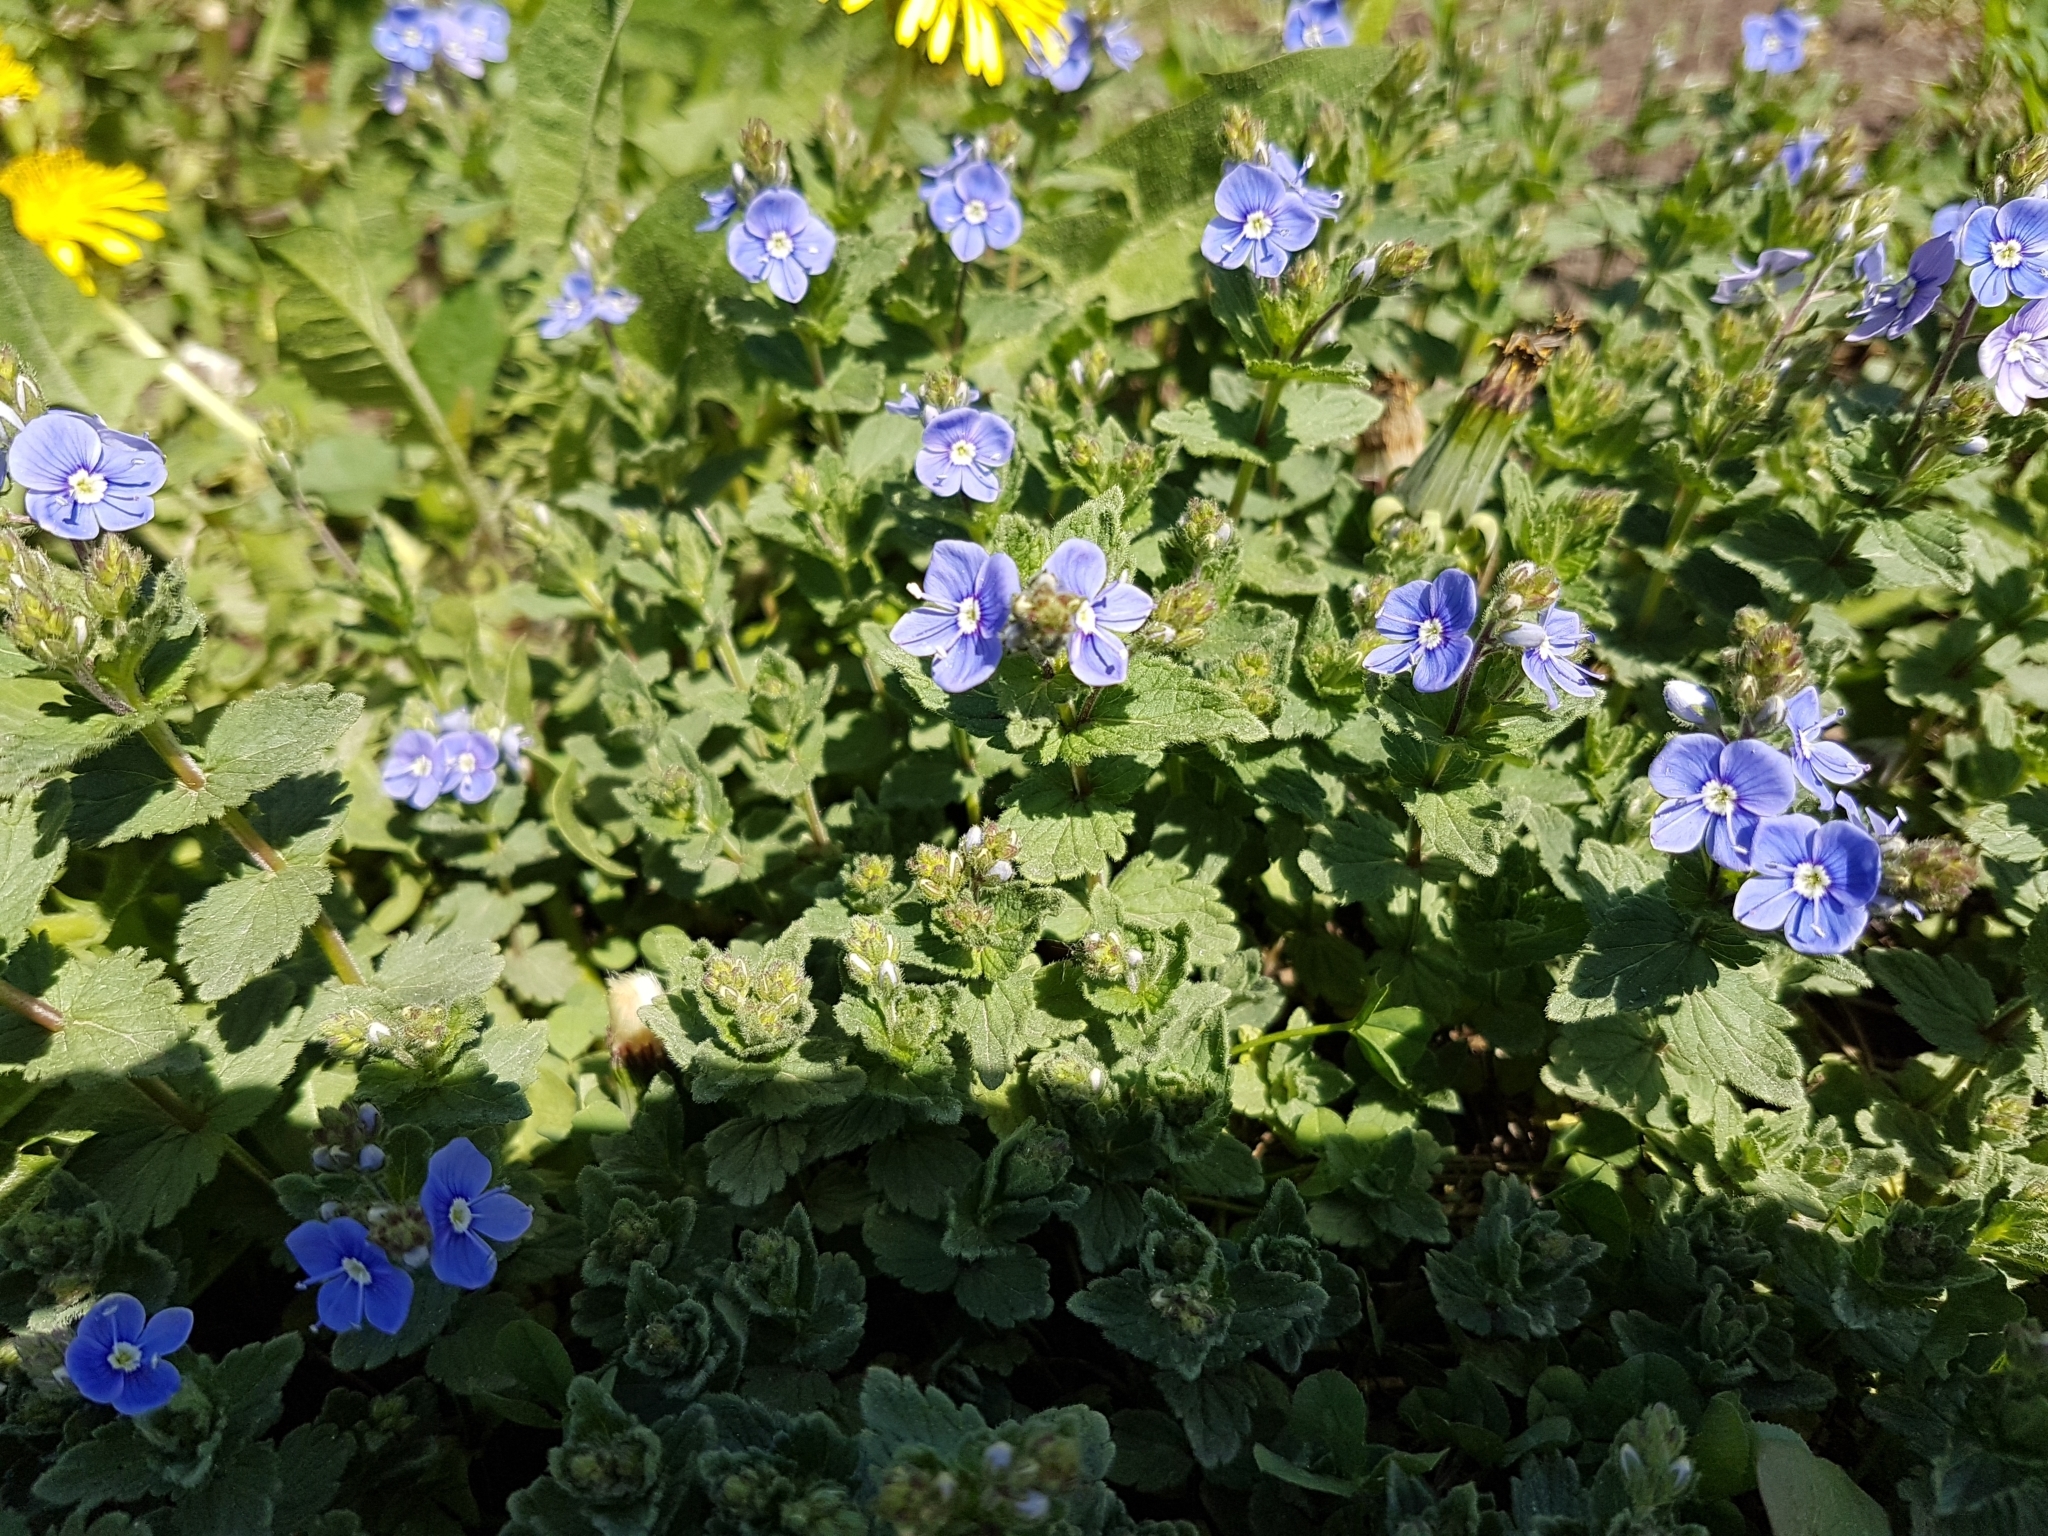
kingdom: Plantae
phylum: Tracheophyta
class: Magnoliopsida
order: Lamiales
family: Plantaginaceae
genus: Veronica
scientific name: Veronica chamaedrys
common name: Germander speedwell
